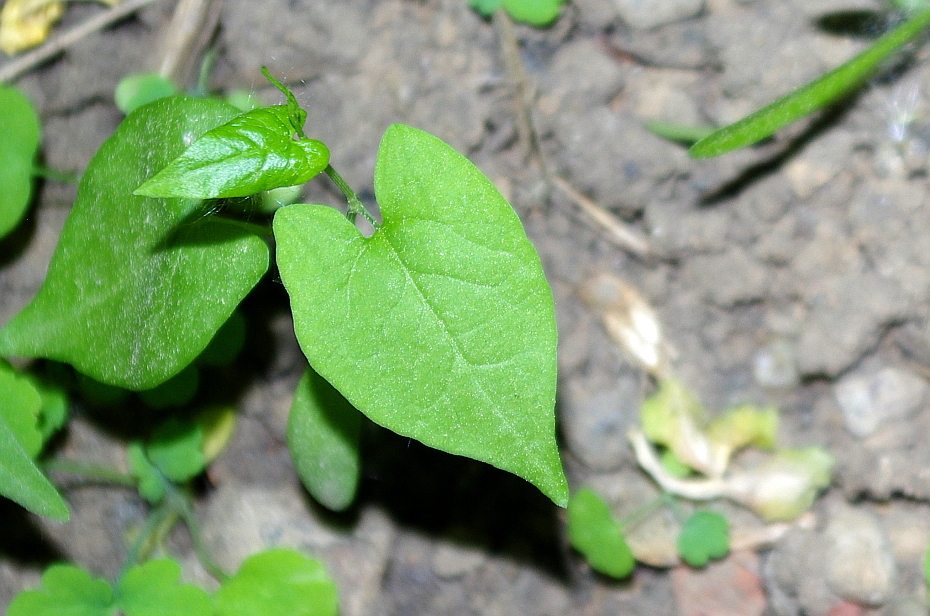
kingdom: Plantae
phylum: Tracheophyta
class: Magnoliopsida
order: Caryophyllales
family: Polygonaceae
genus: Fallopia
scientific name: Fallopia
